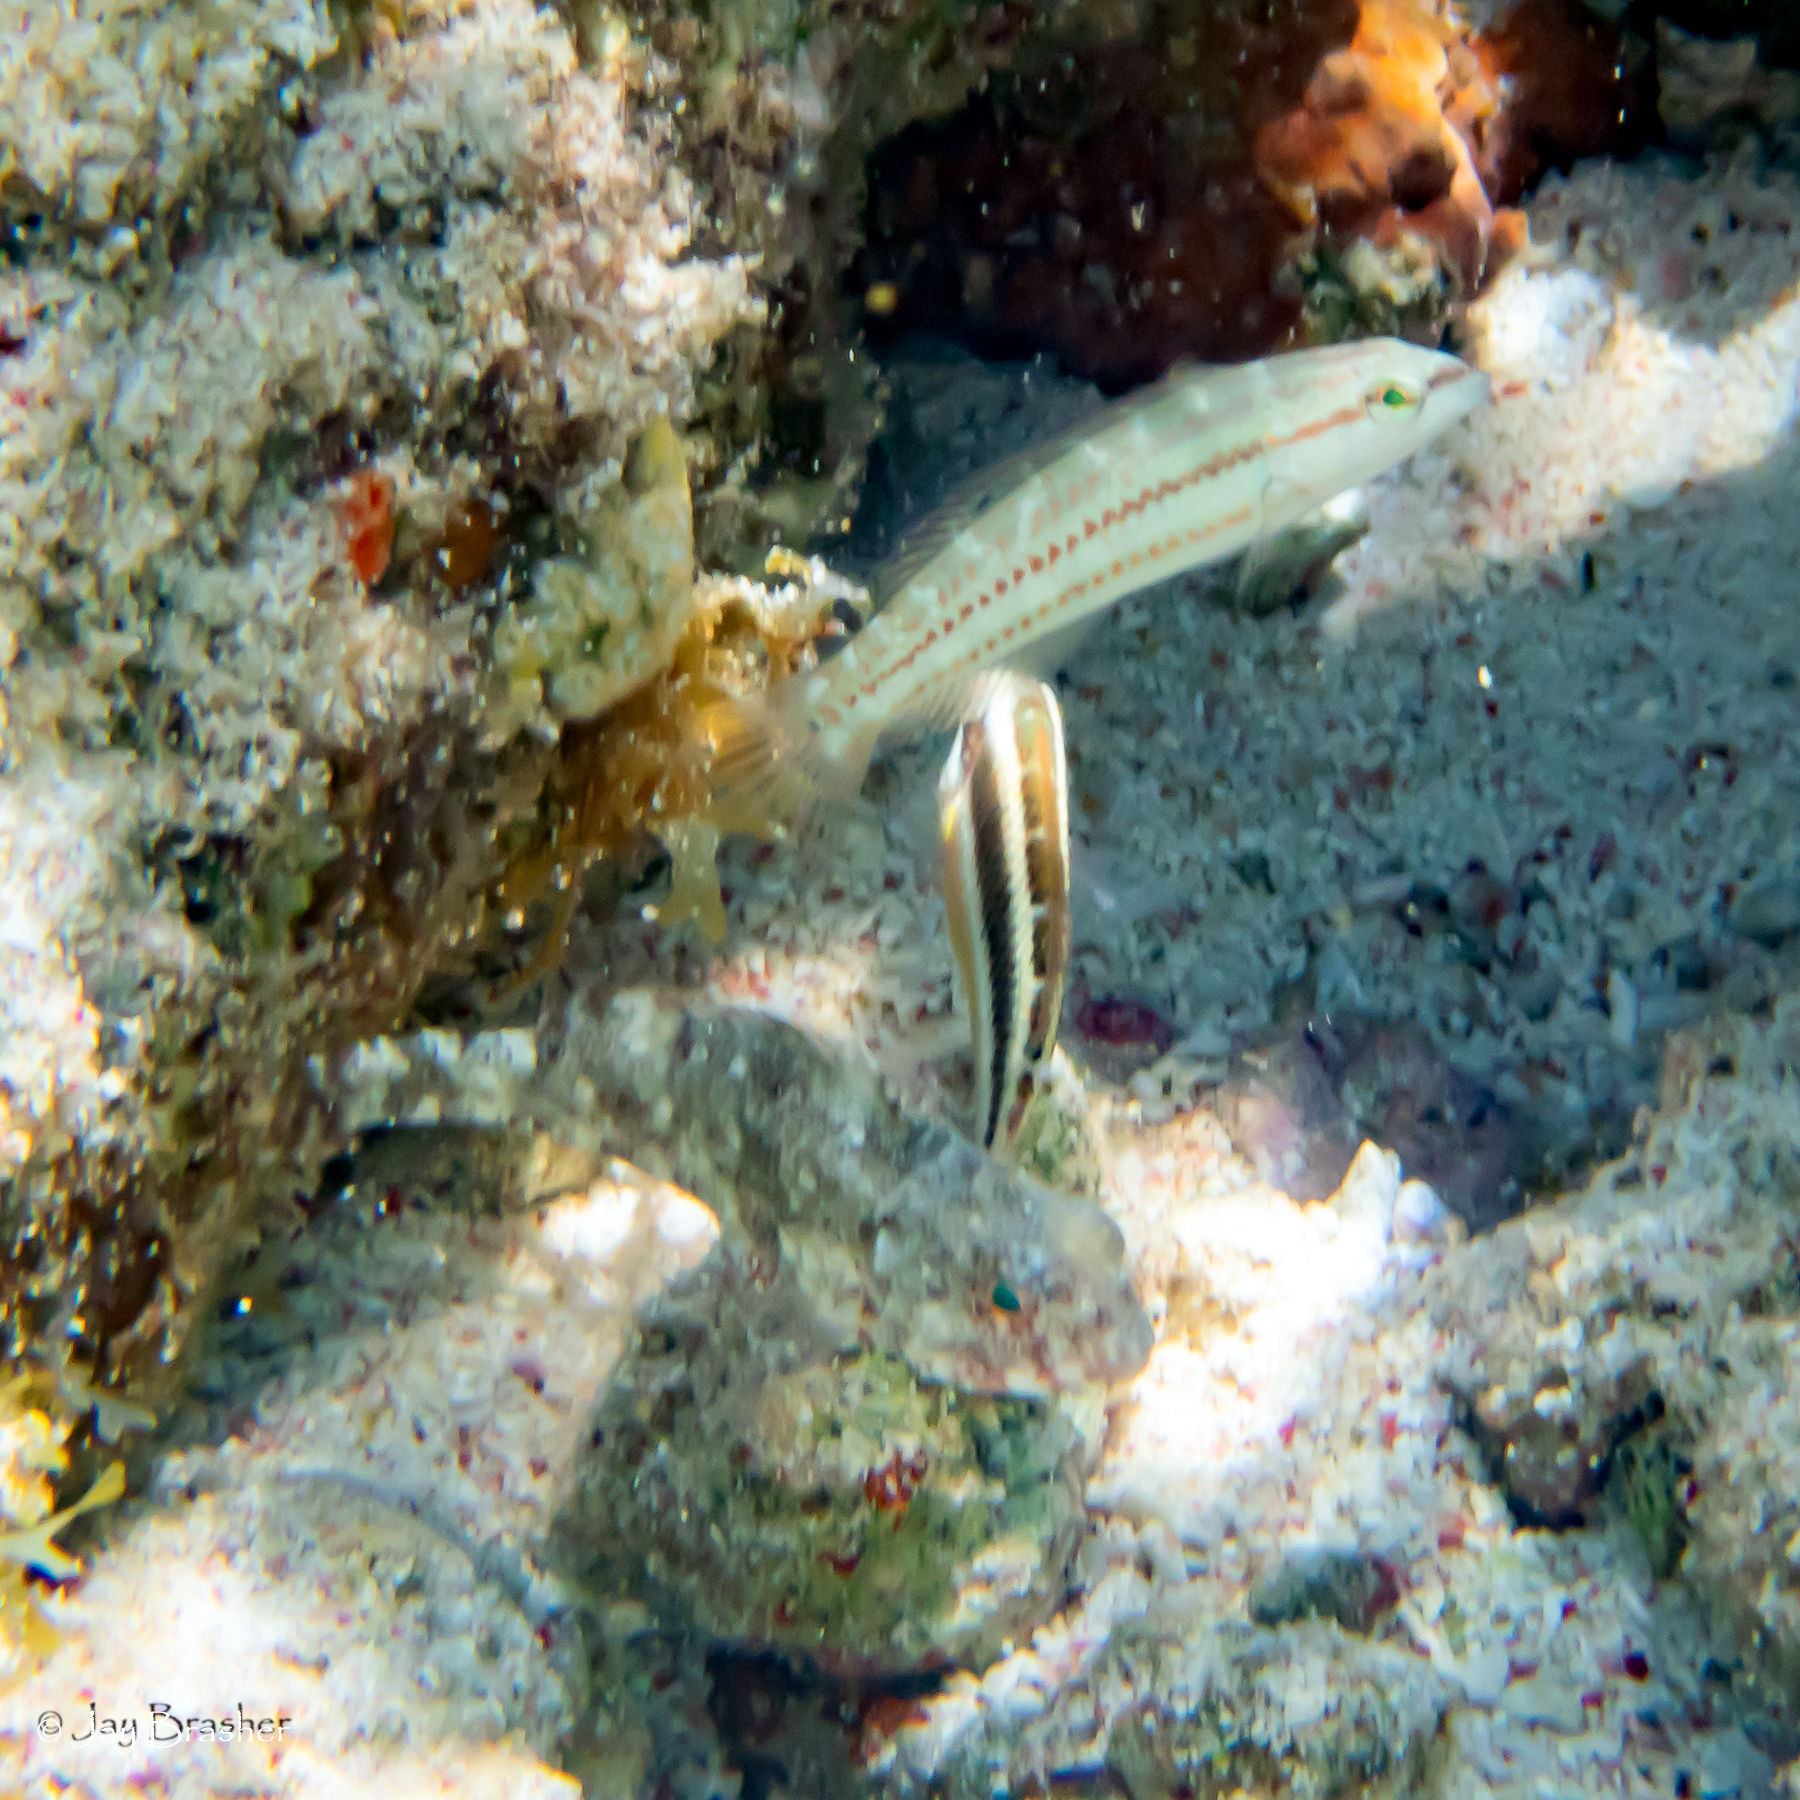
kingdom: Animalia
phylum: Chordata
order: Perciformes
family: Labridae
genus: Halichoeres
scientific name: Halichoeres bivittatus
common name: Slippery dick
